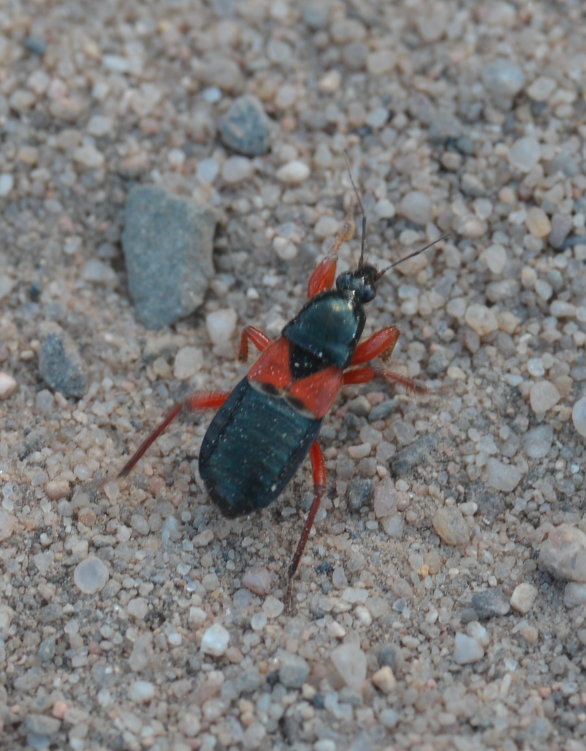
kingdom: Animalia
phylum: Arthropoda
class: Insecta
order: Hemiptera
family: Nabidae
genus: Prostemma
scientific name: Prostemma guttula
